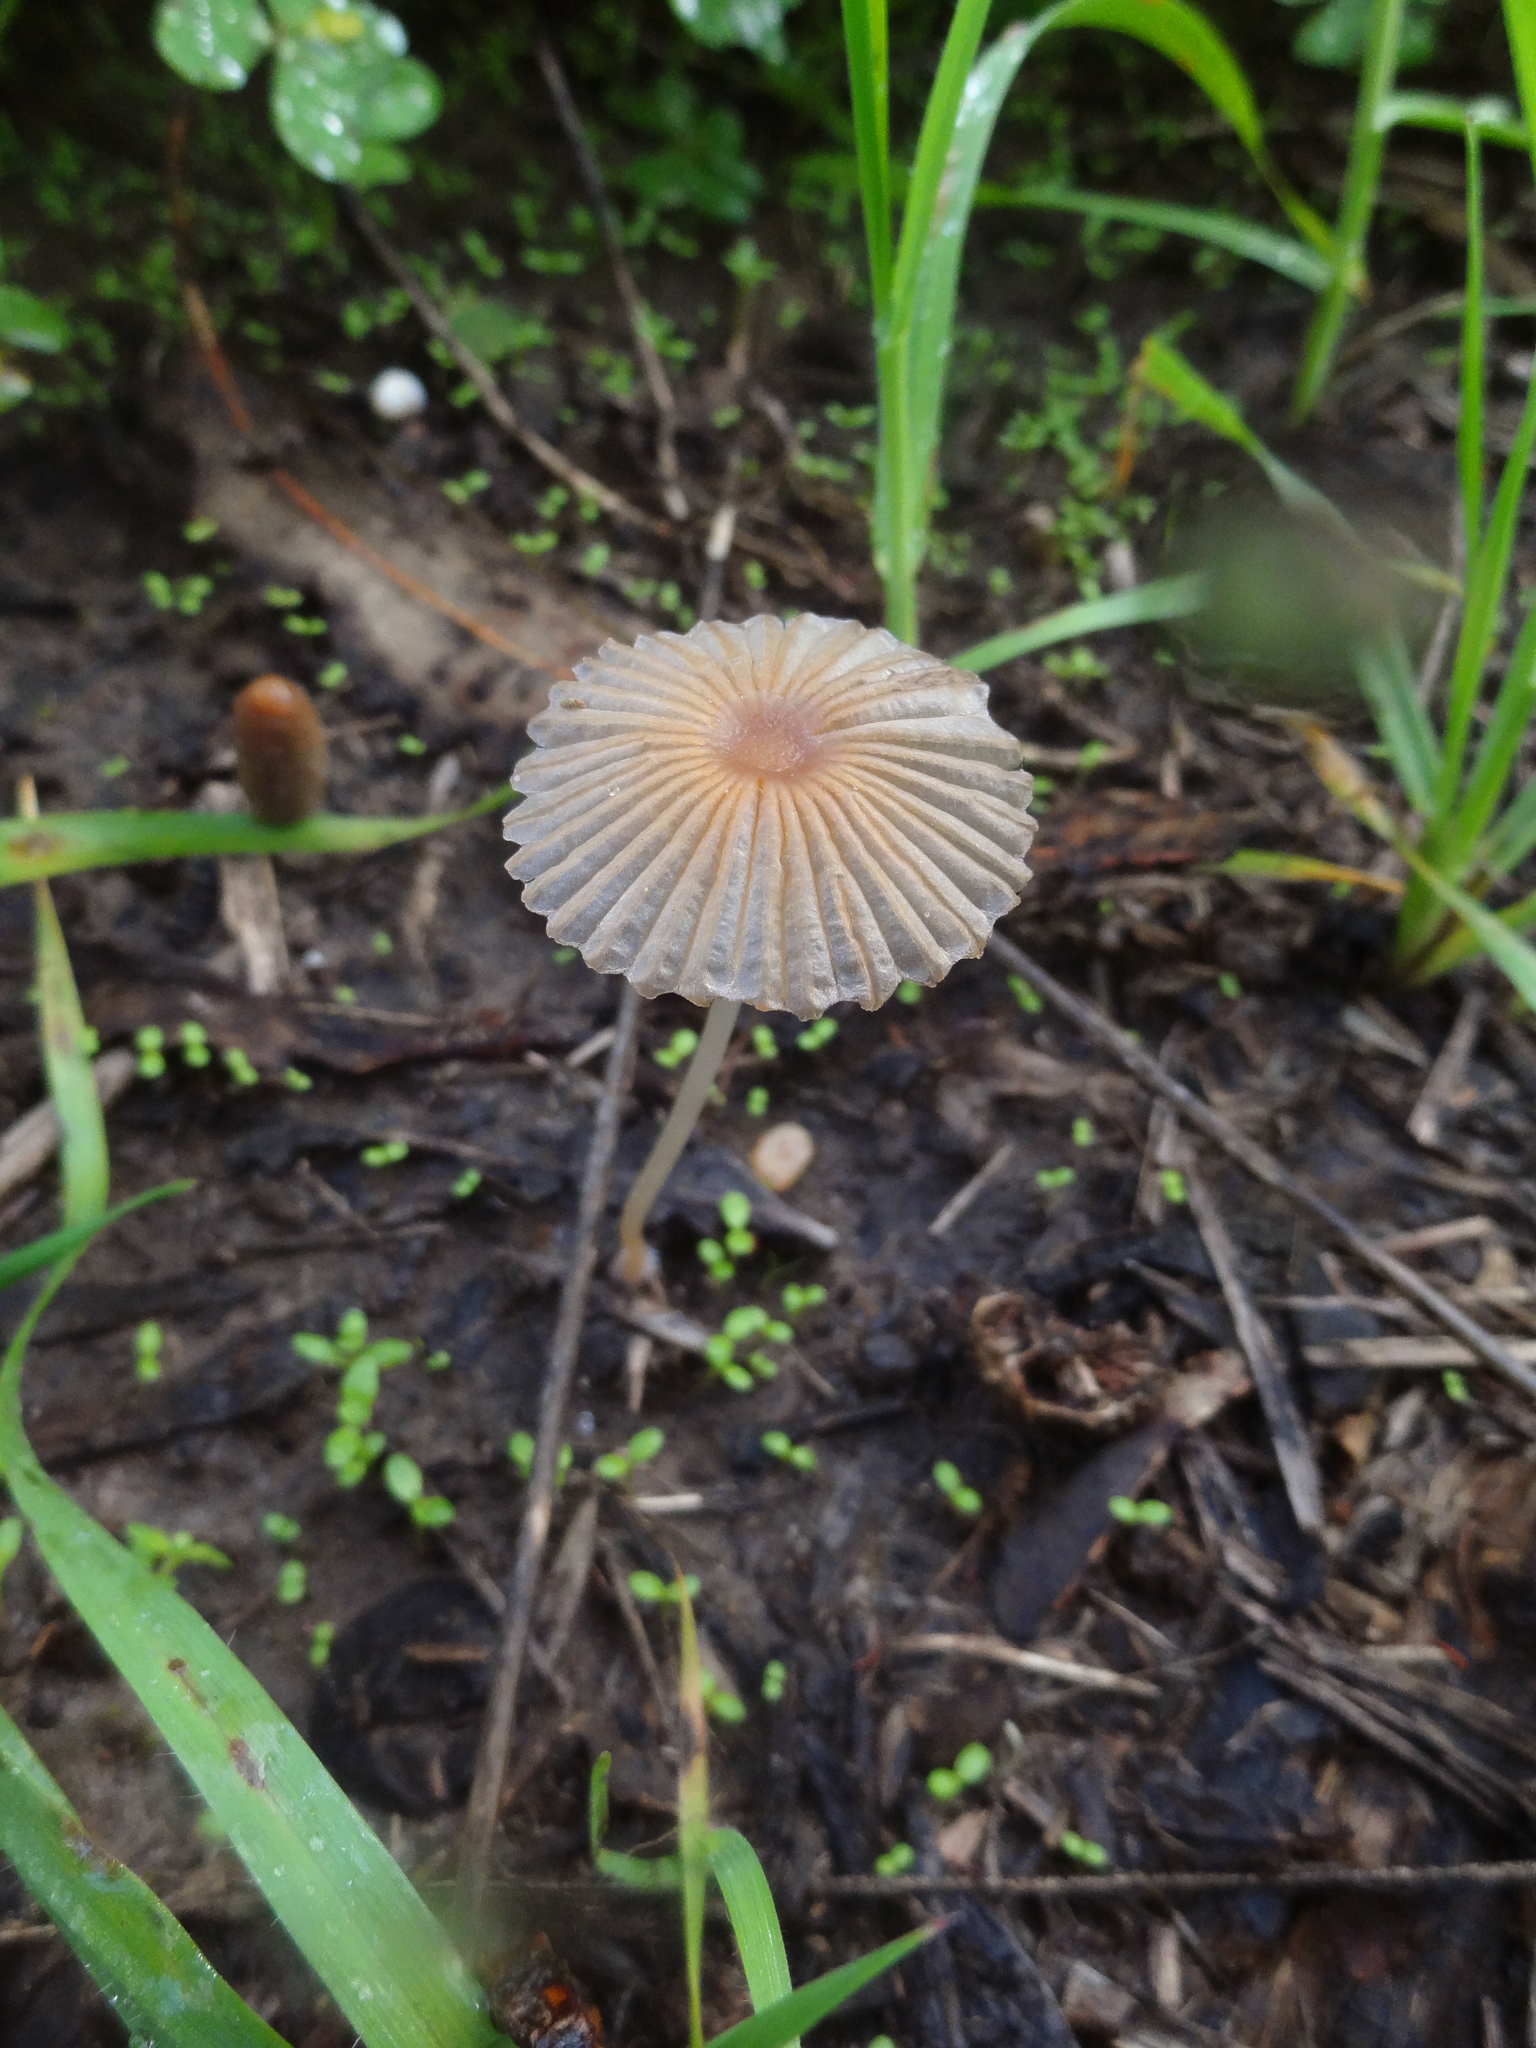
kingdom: Fungi
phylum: Basidiomycota
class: Agaricomycetes
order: Agaricales
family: Psathyrellaceae
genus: Parasola
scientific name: Parasola plicatilis
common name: Pleated inkcap
